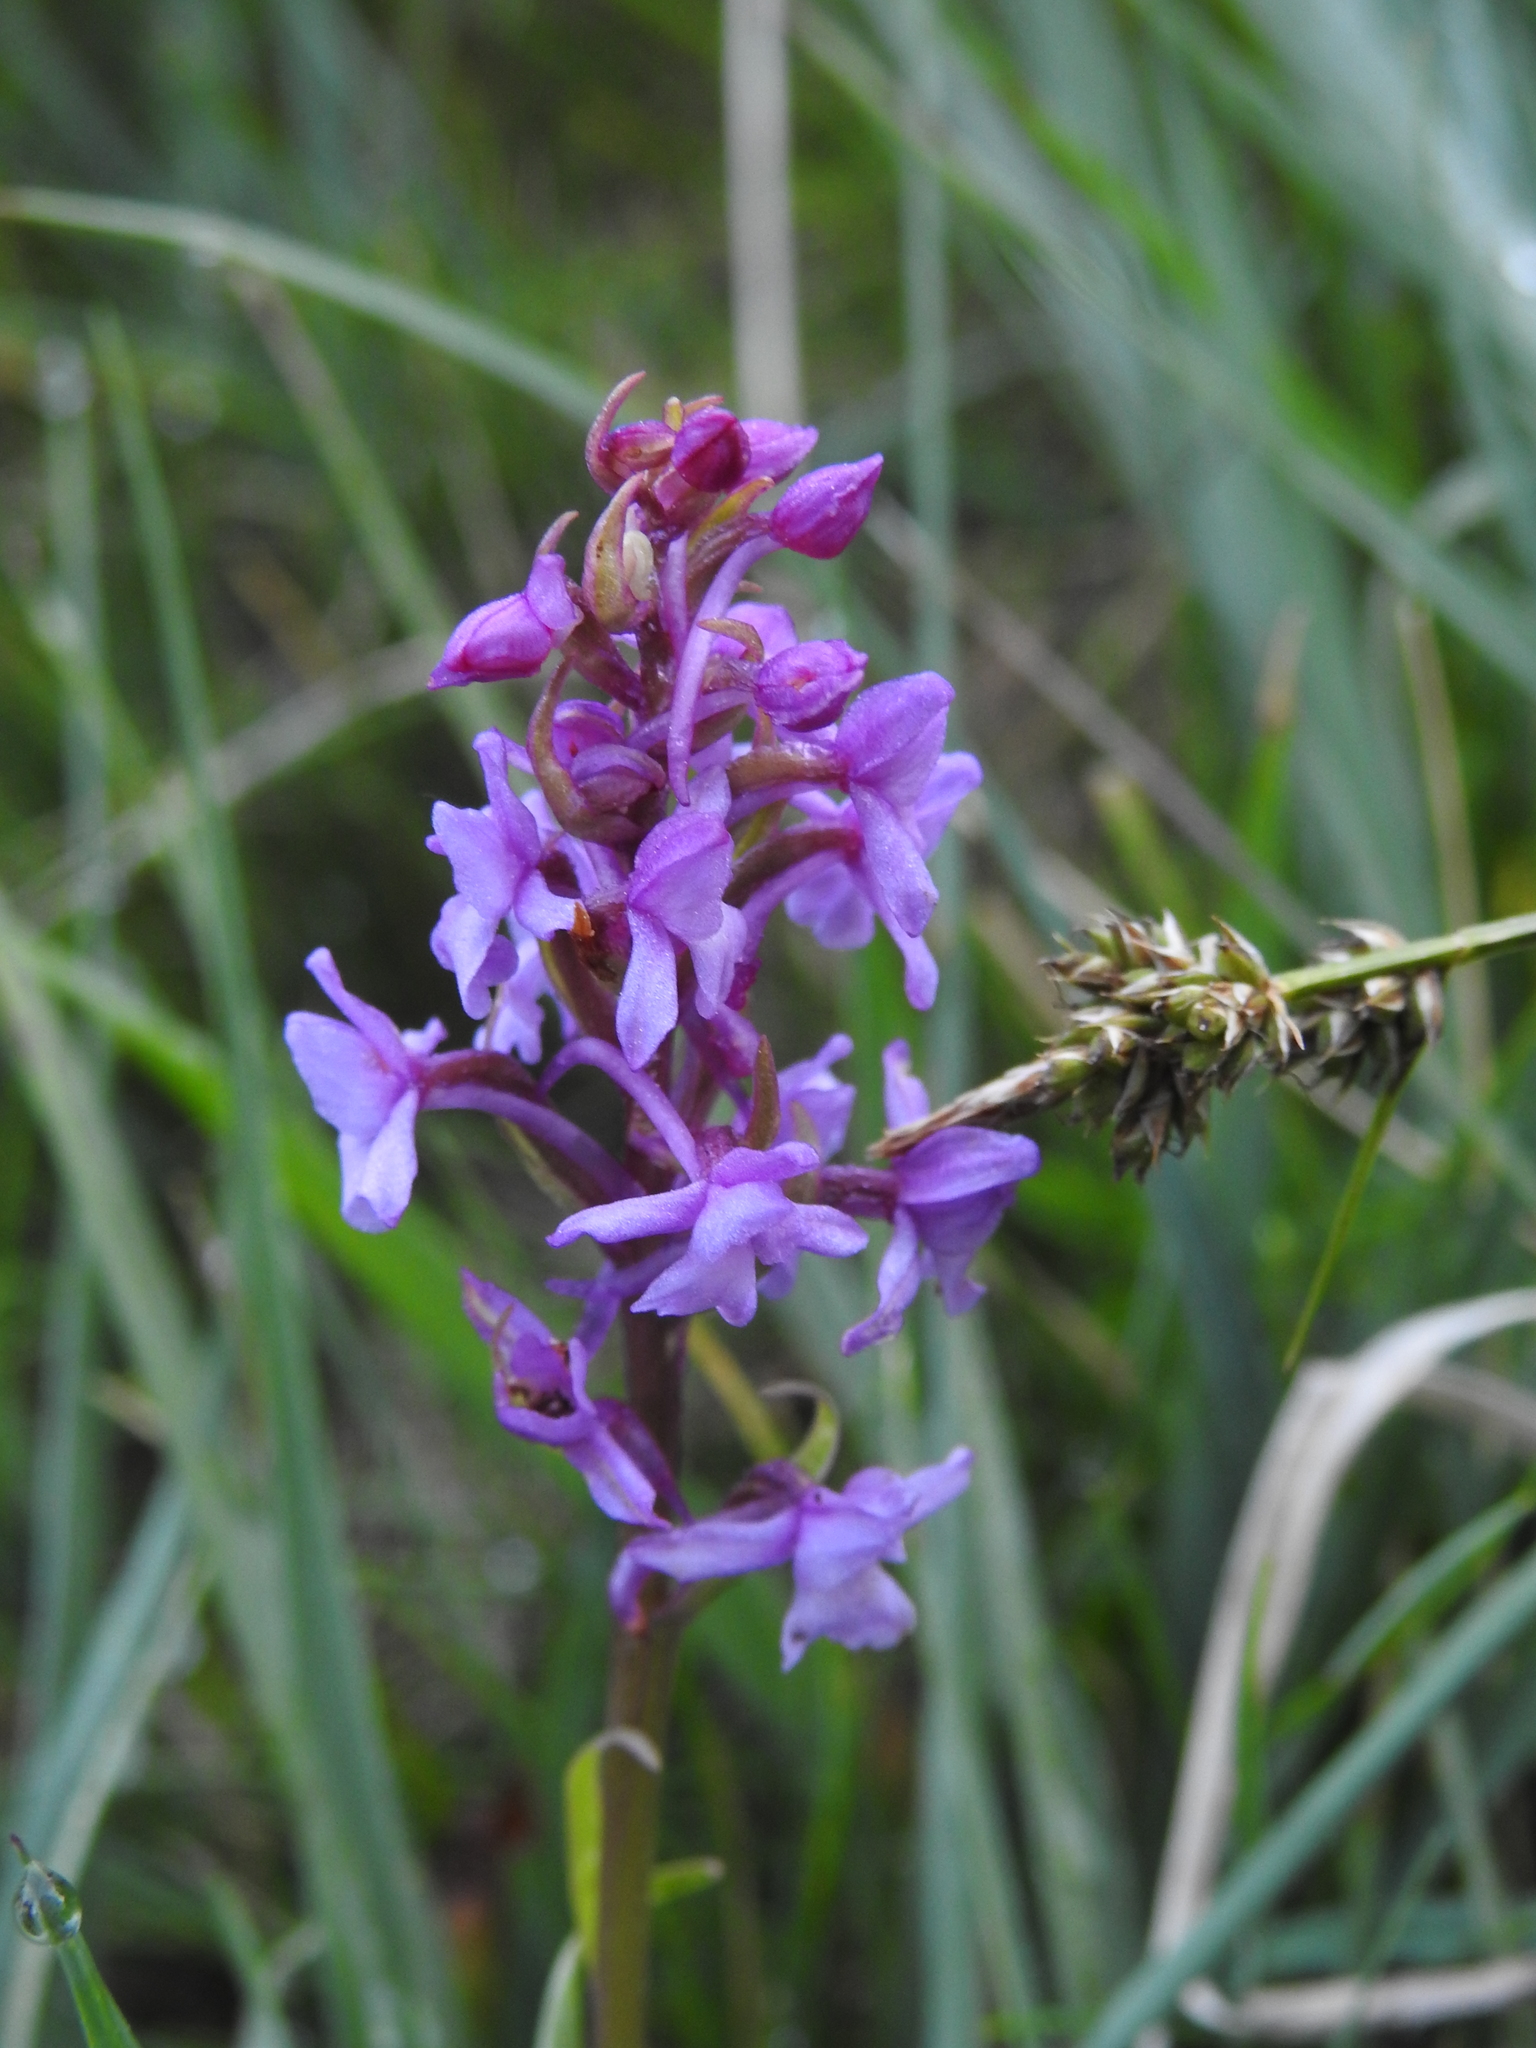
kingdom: Plantae
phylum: Tracheophyta
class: Liliopsida
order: Asparagales
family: Orchidaceae
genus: Gymnadenia
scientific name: Gymnadenia conopsea
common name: Fragrant orchid
